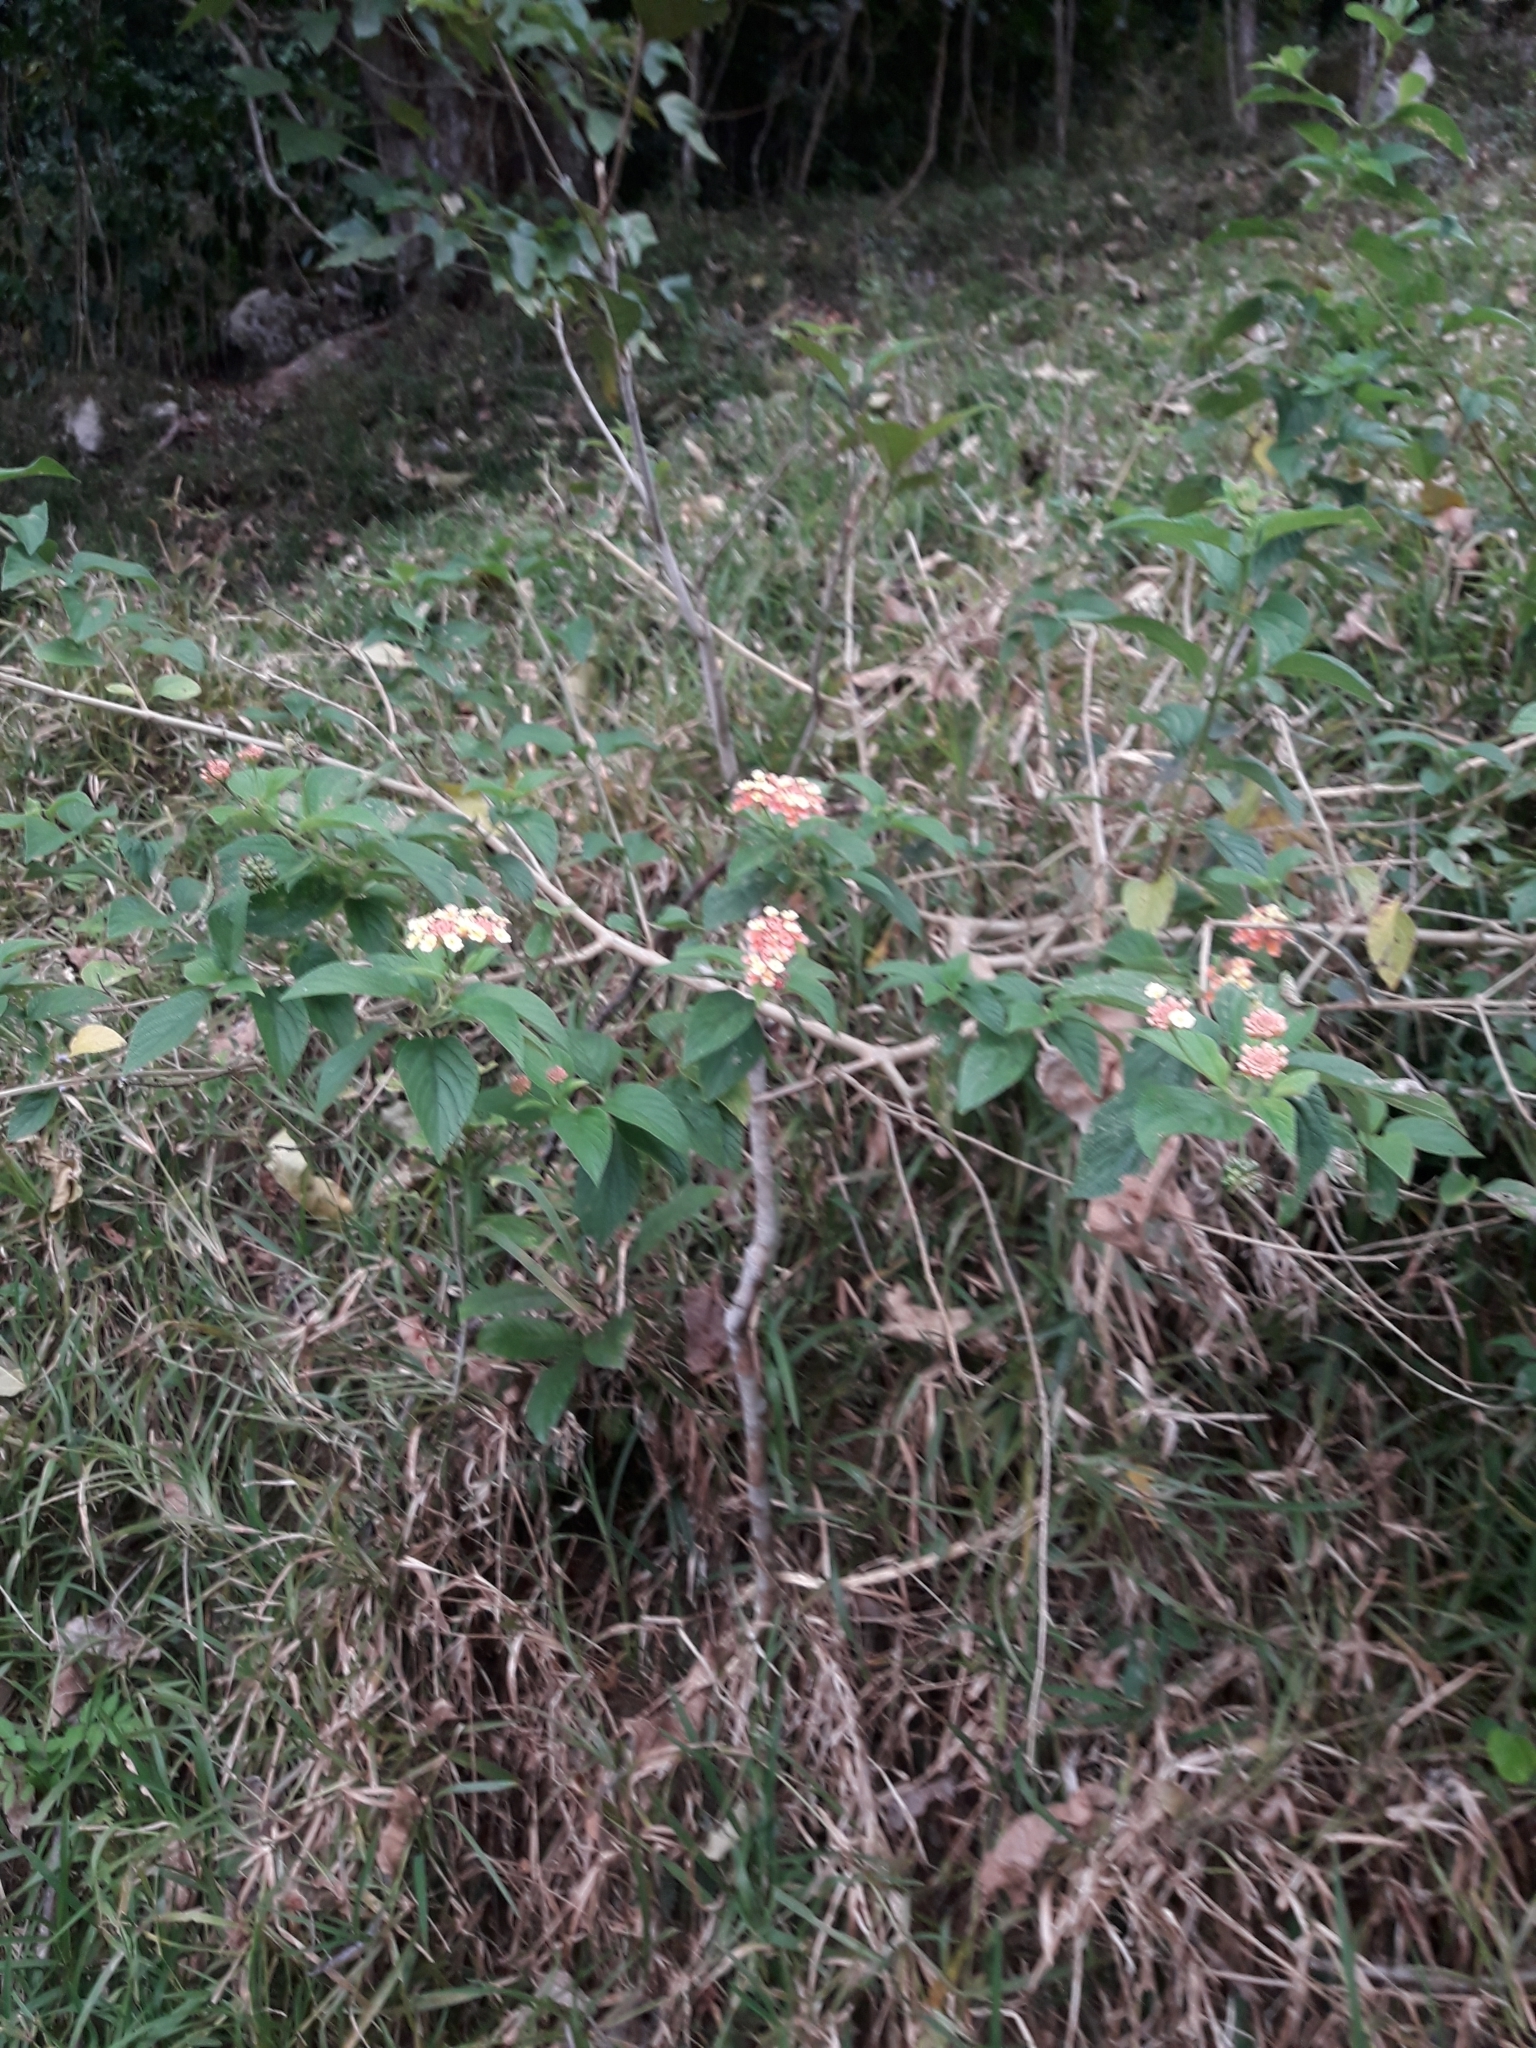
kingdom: Plantae
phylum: Tracheophyta
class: Magnoliopsida
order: Lamiales
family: Verbenaceae
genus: Lantana
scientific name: Lantana camara
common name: Lantana
